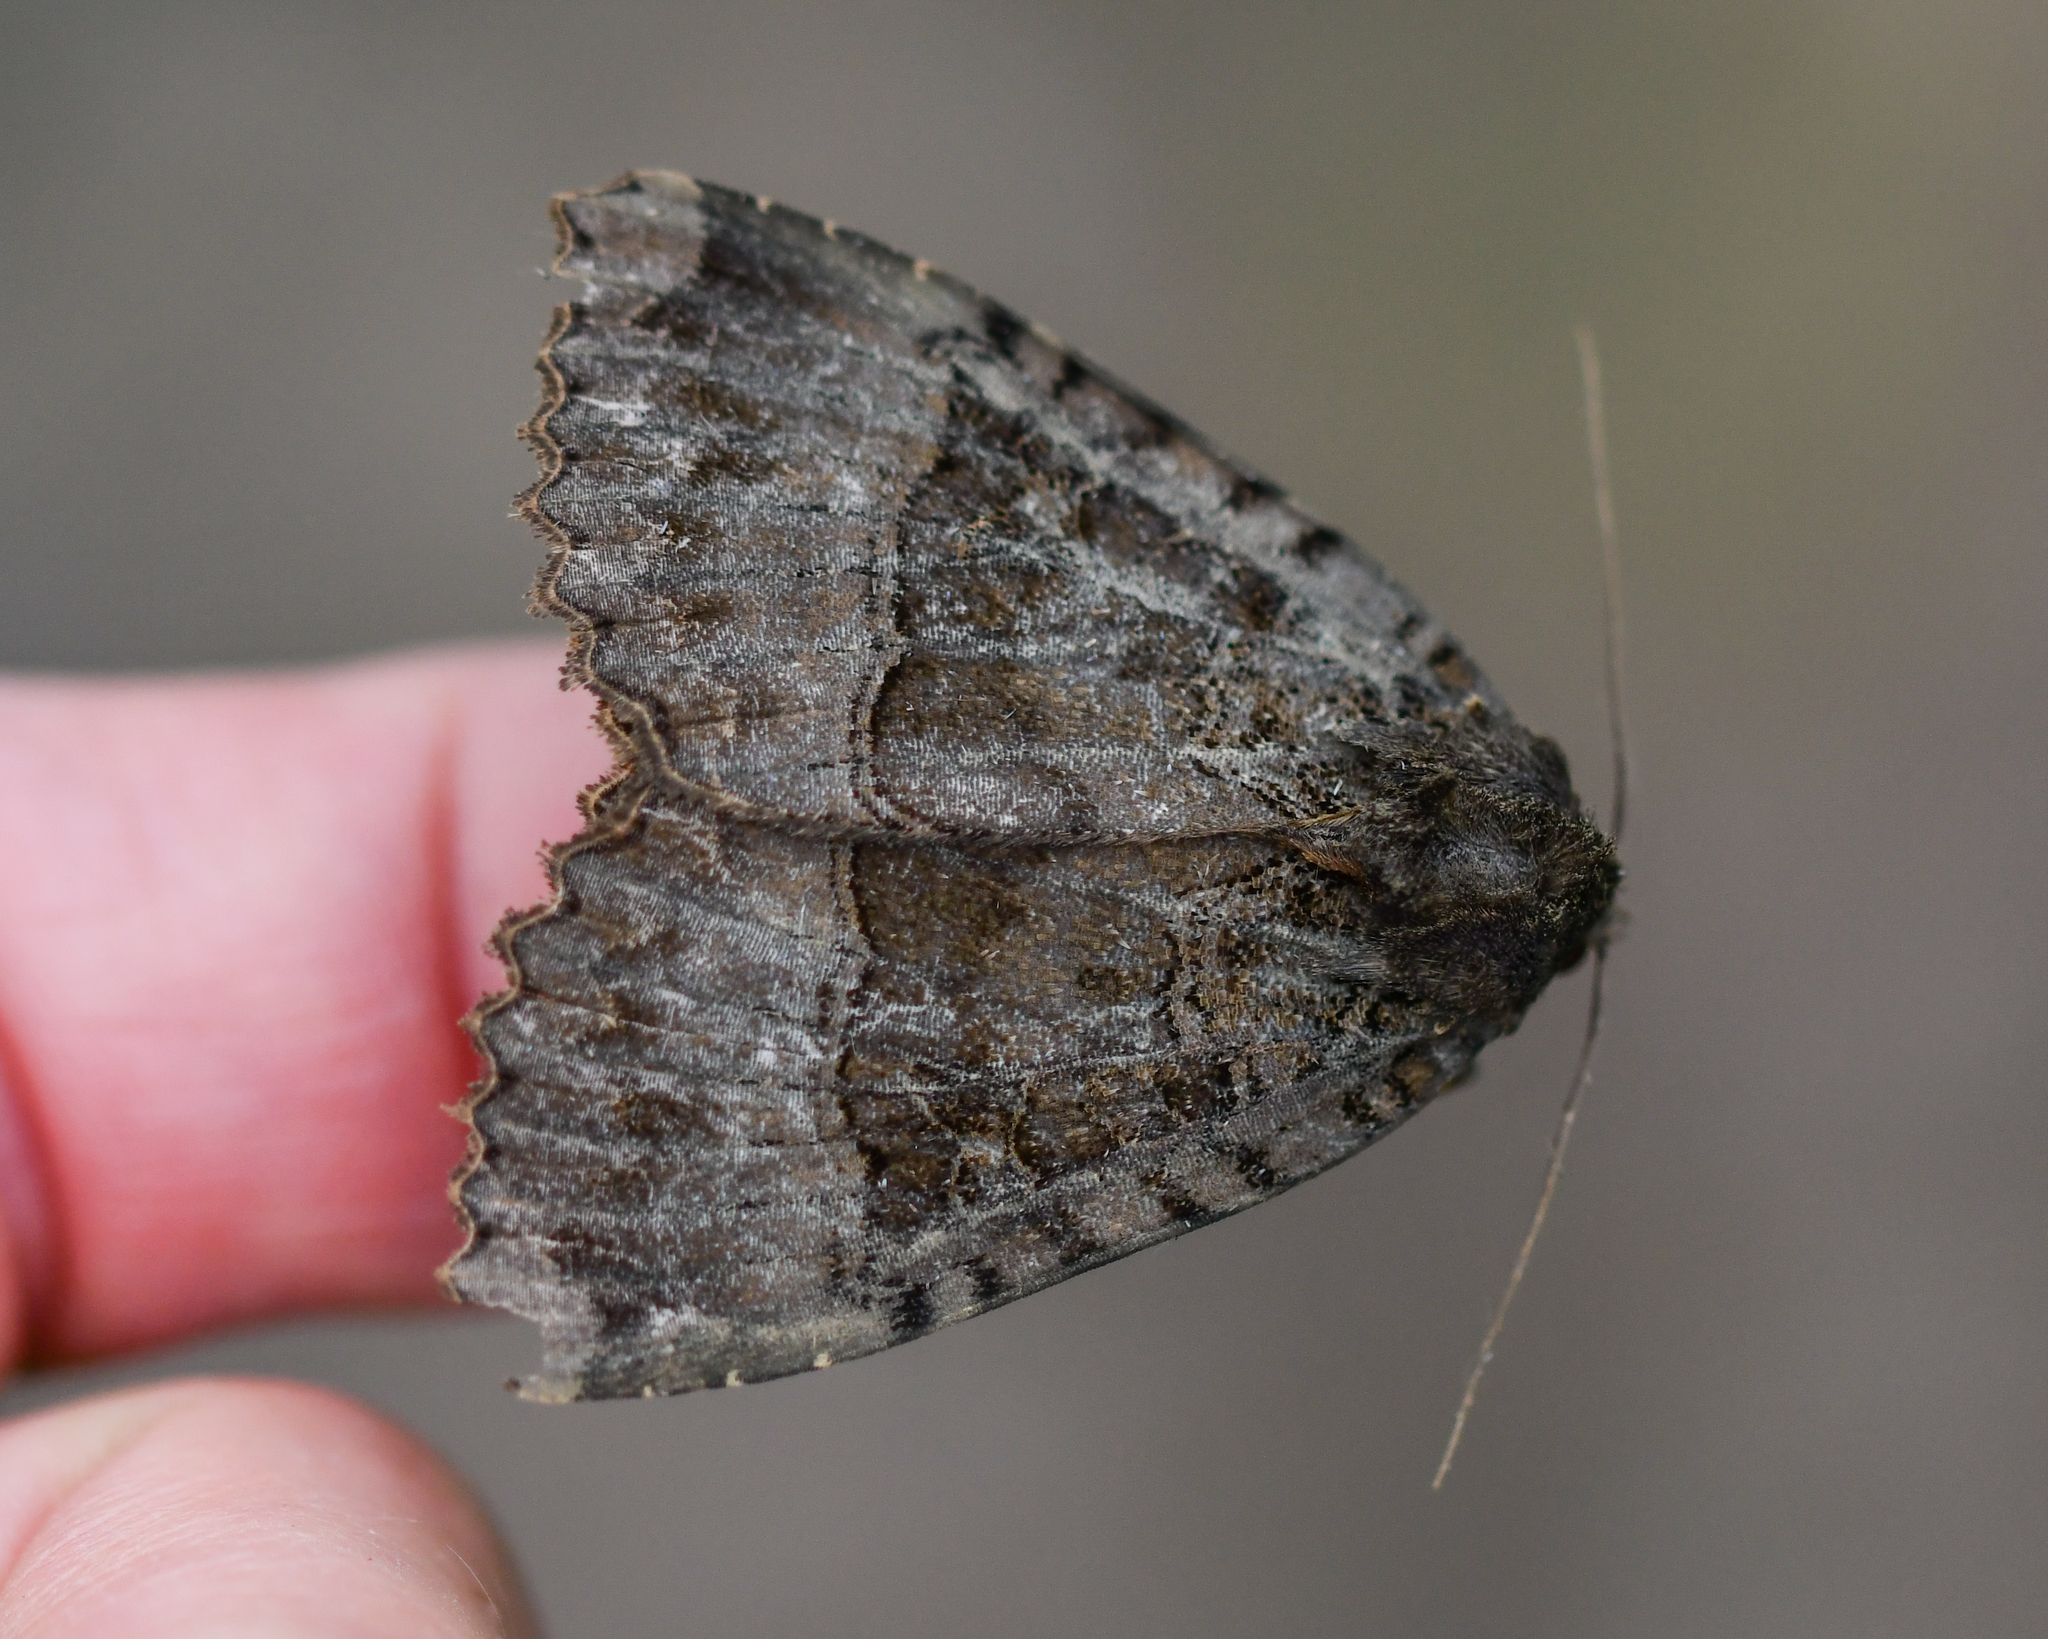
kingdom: Animalia
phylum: Arthropoda
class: Insecta
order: Lepidoptera
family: Noctuidae
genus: Mormo
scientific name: Mormo maura
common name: Old lady
